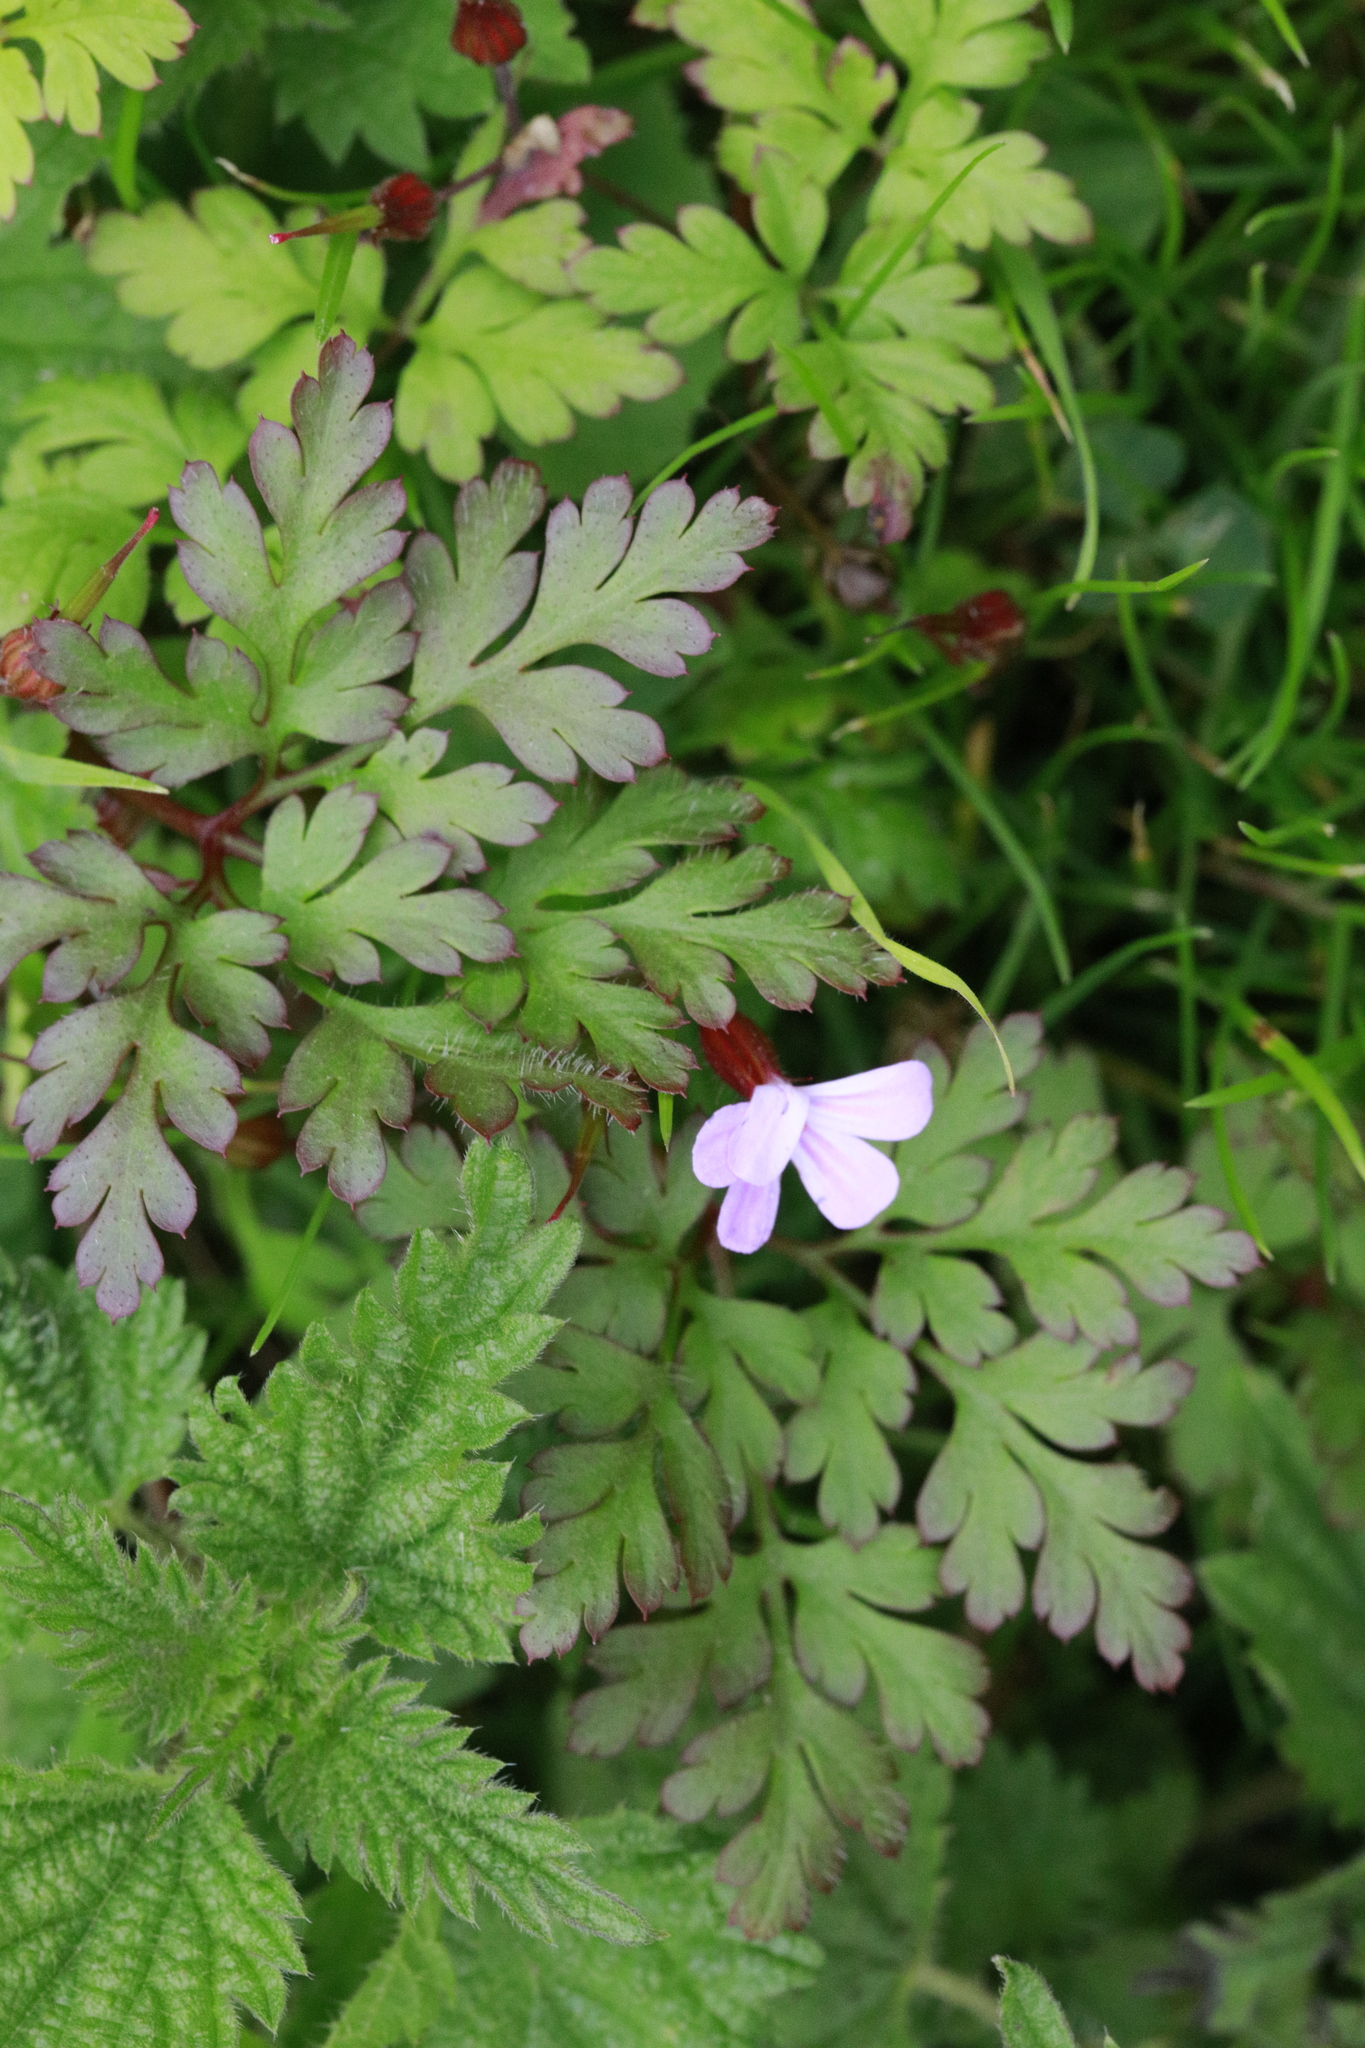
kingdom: Plantae
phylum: Tracheophyta
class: Magnoliopsida
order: Geraniales
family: Geraniaceae
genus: Geranium
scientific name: Geranium robertianum
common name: Herb-robert
